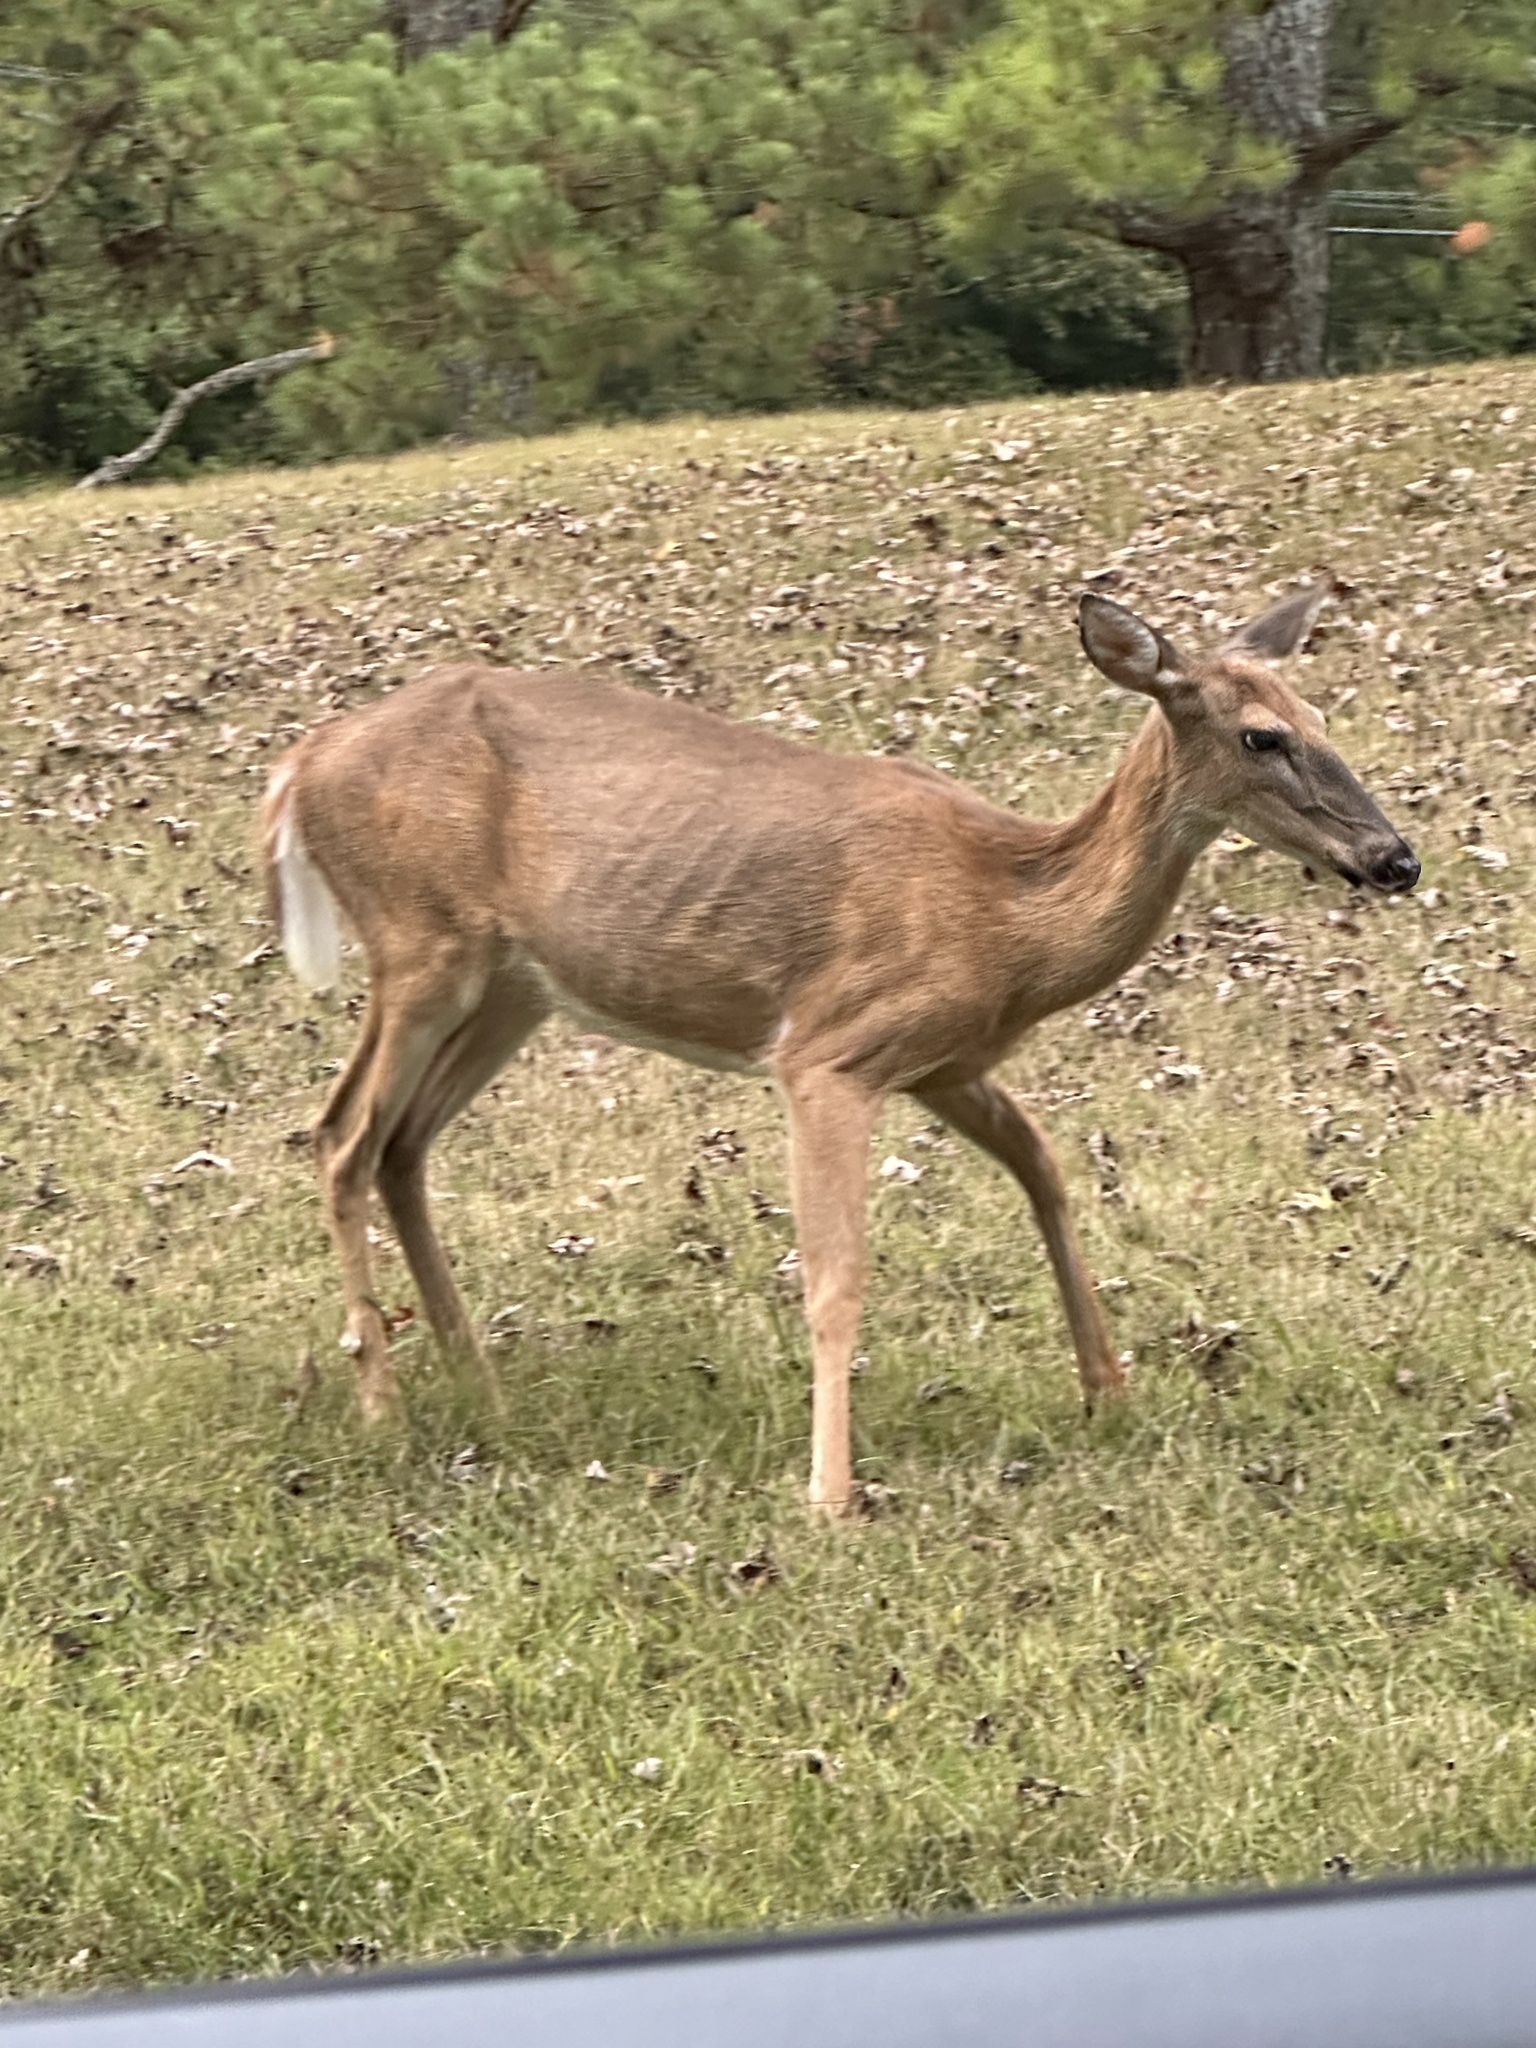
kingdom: Animalia
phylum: Chordata
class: Mammalia
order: Artiodactyla
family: Cervidae
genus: Odocoileus
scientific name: Odocoileus virginianus
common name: White-tailed deer
